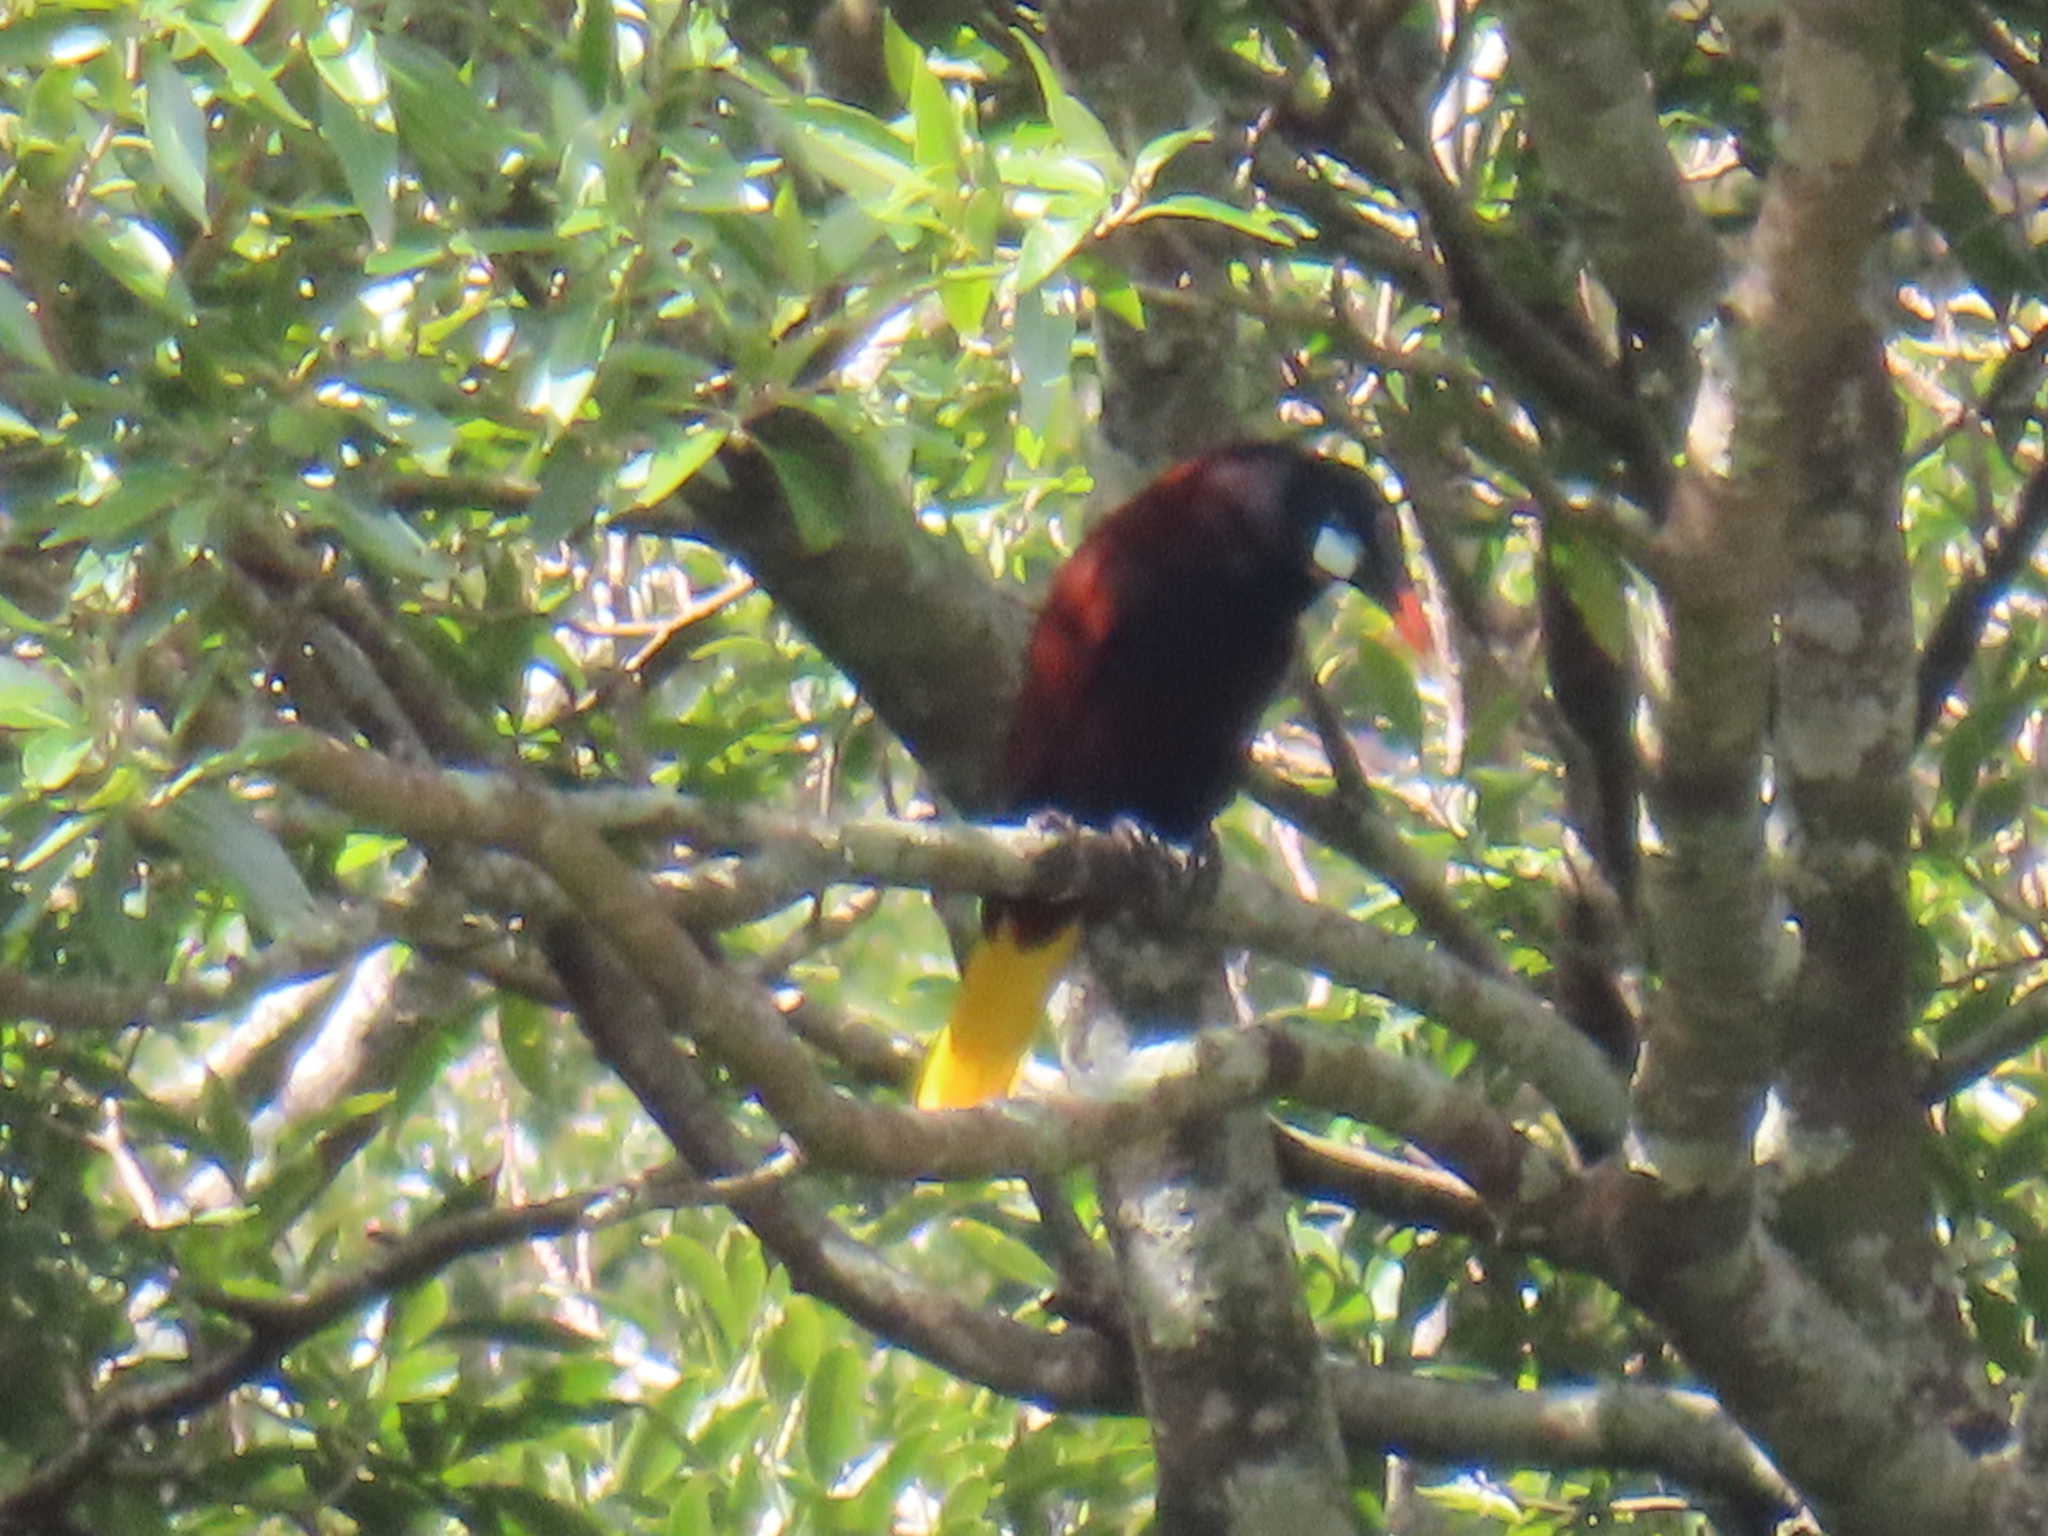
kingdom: Animalia
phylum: Chordata
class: Aves
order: Passeriformes
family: Icteridae
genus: Psarocolius
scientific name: Psarocolius montezuma
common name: Montezuma oropendola
